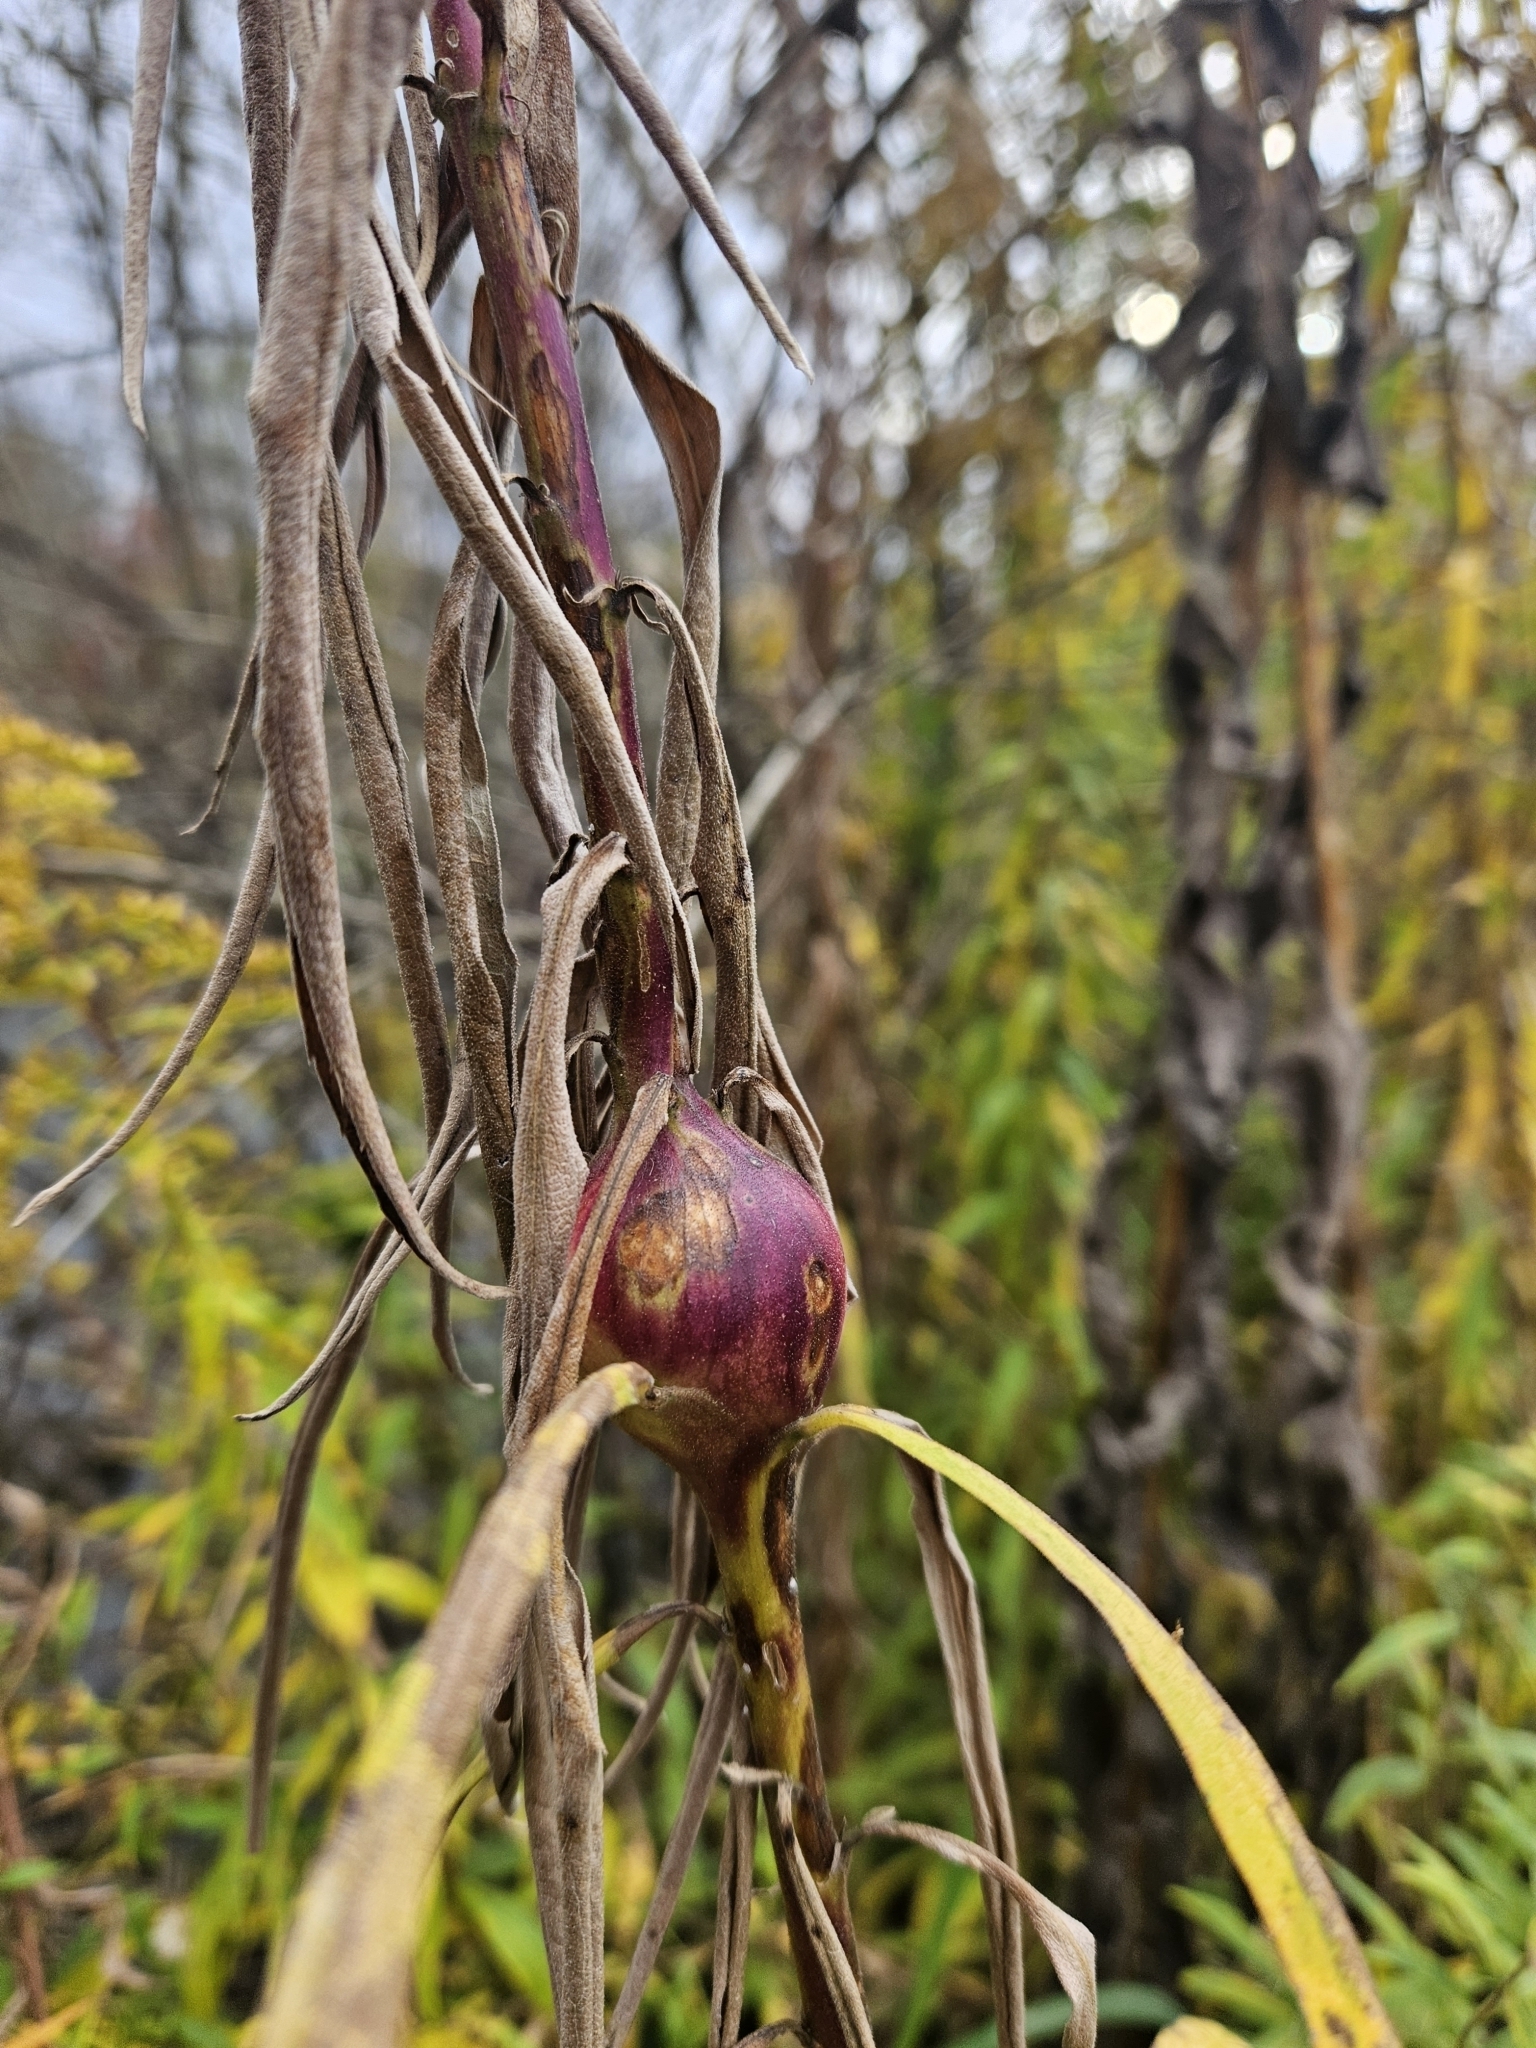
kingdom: Animalia
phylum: Arthropoda
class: Insecta
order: Diptera
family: Tephritidae
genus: Eurosta
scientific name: Eurosta solidaginis
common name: Goldenrod gall fly
